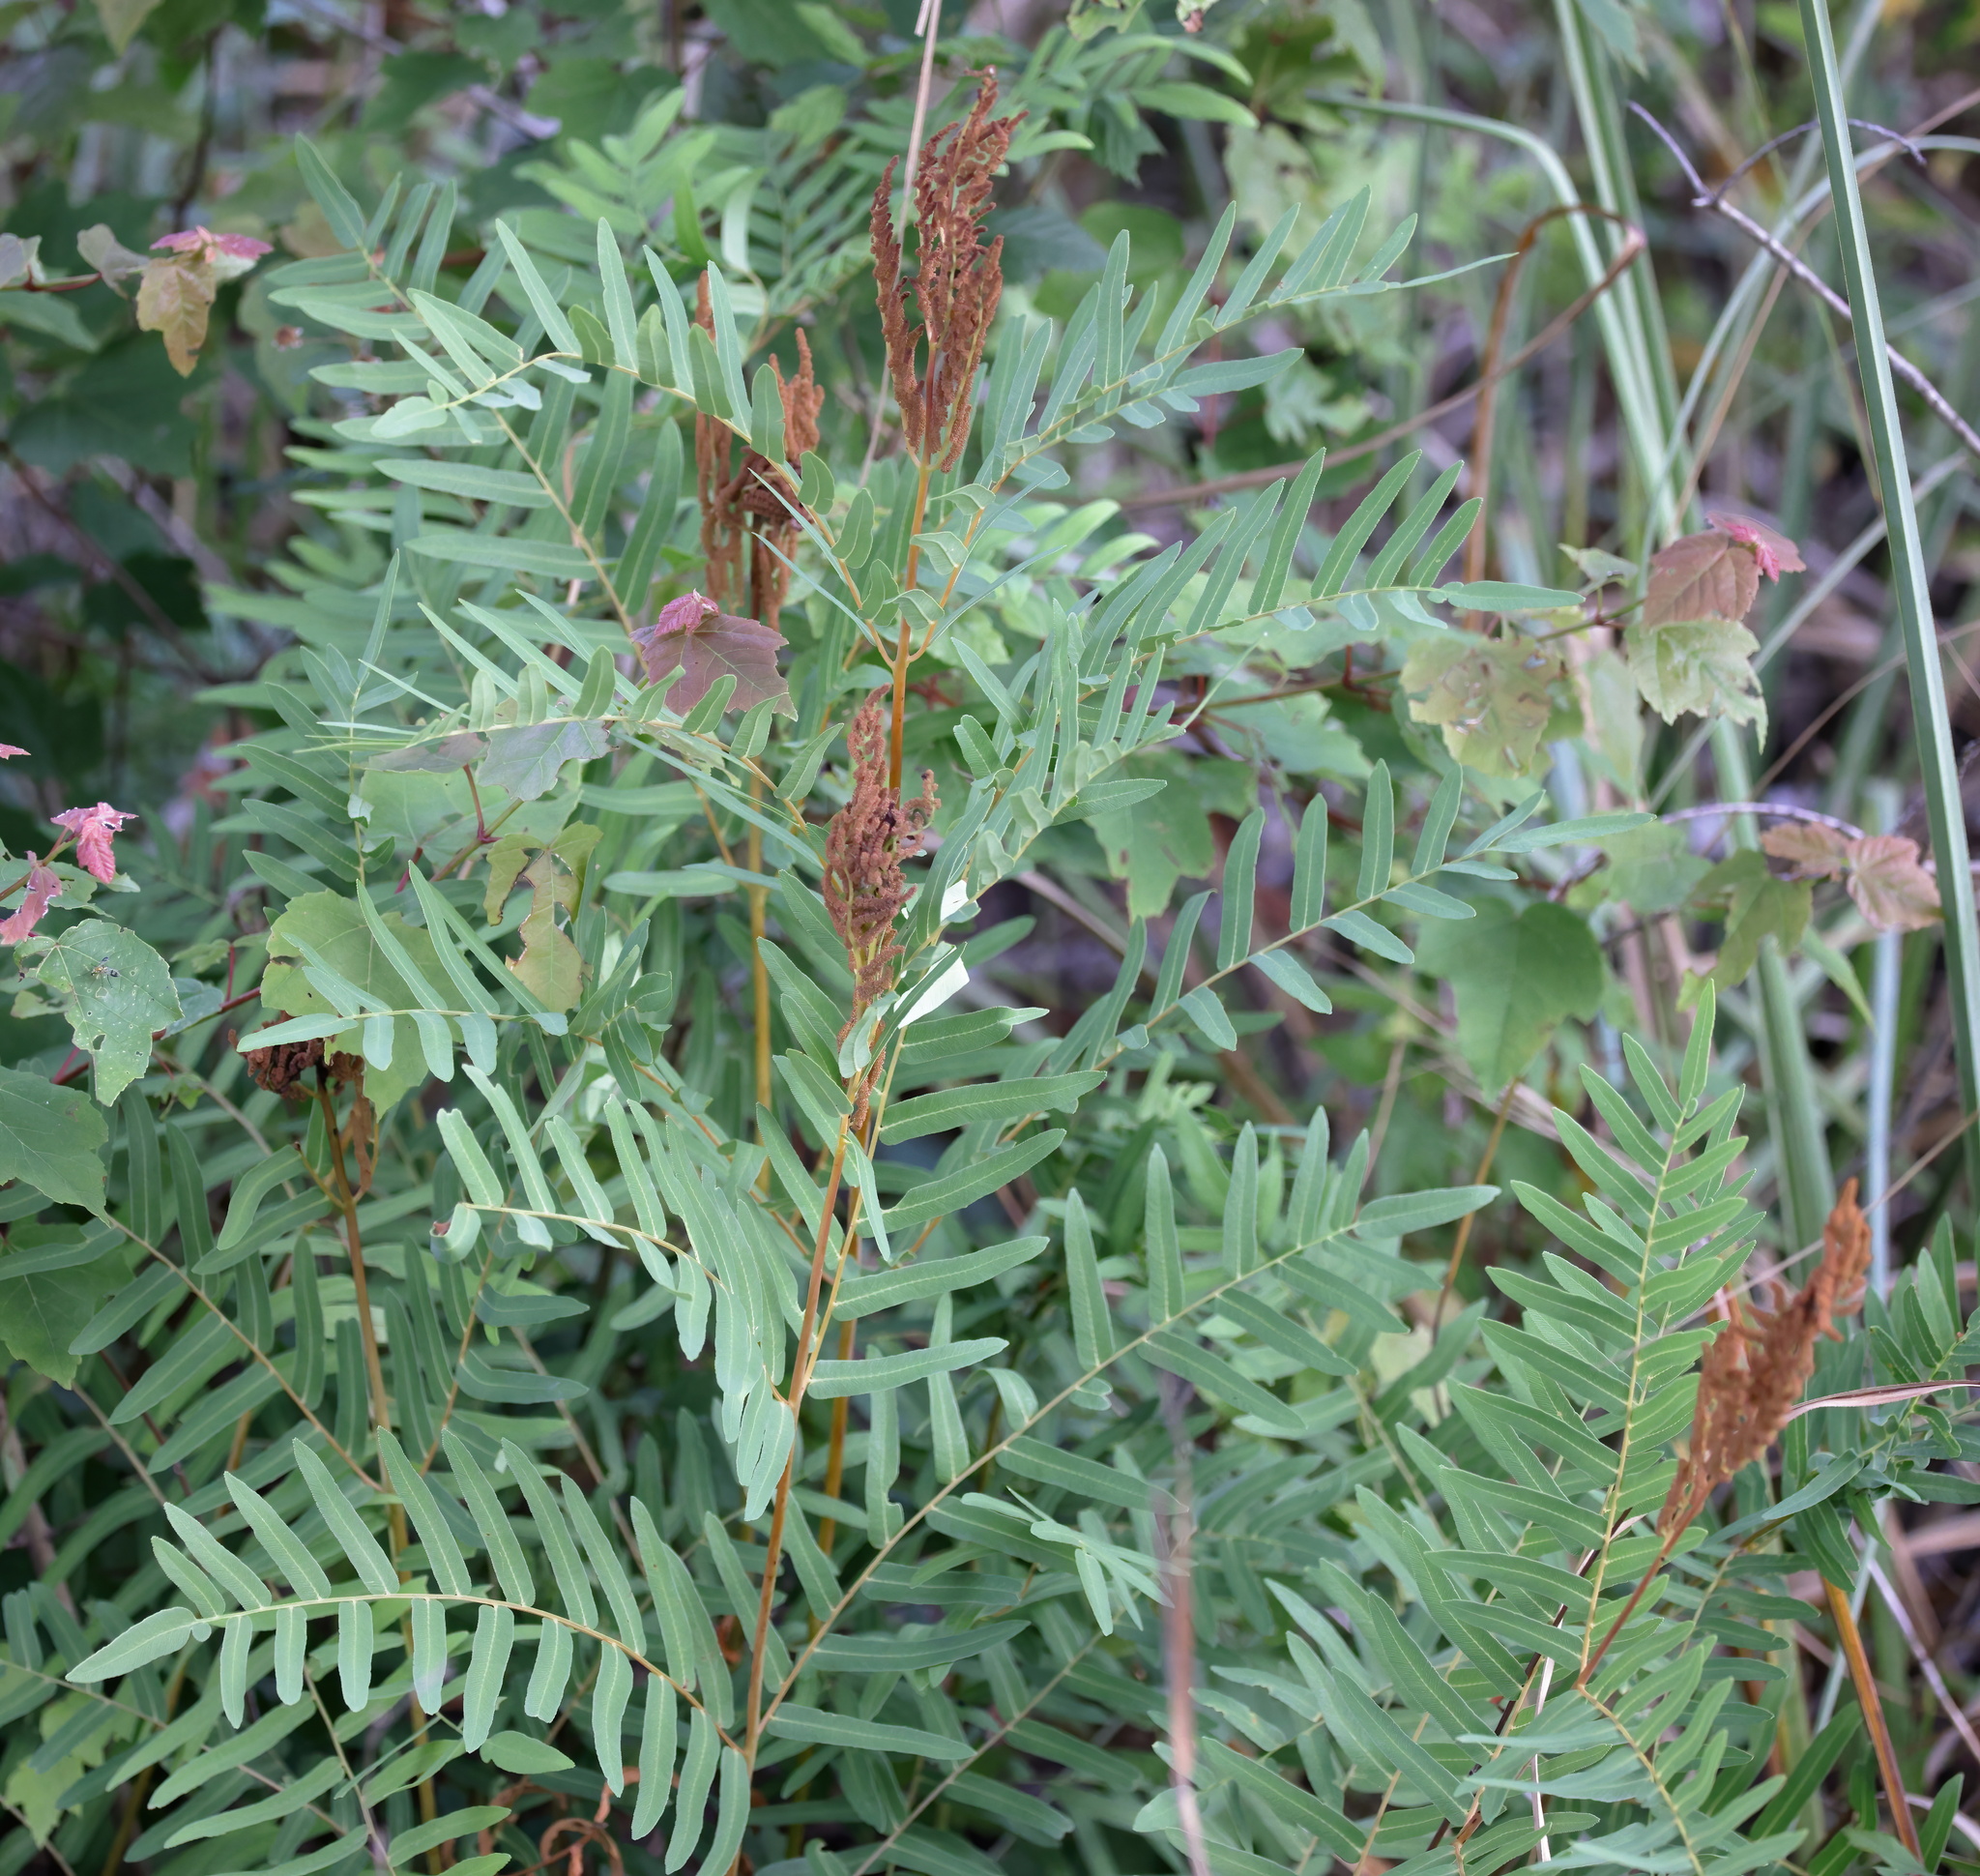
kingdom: Plantae
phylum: Tracheophyta
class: Polypodiopsida
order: Osmundales
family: Osmundaceae
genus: Osmunda
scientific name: Osmunda spectabilis
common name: American royal fern
